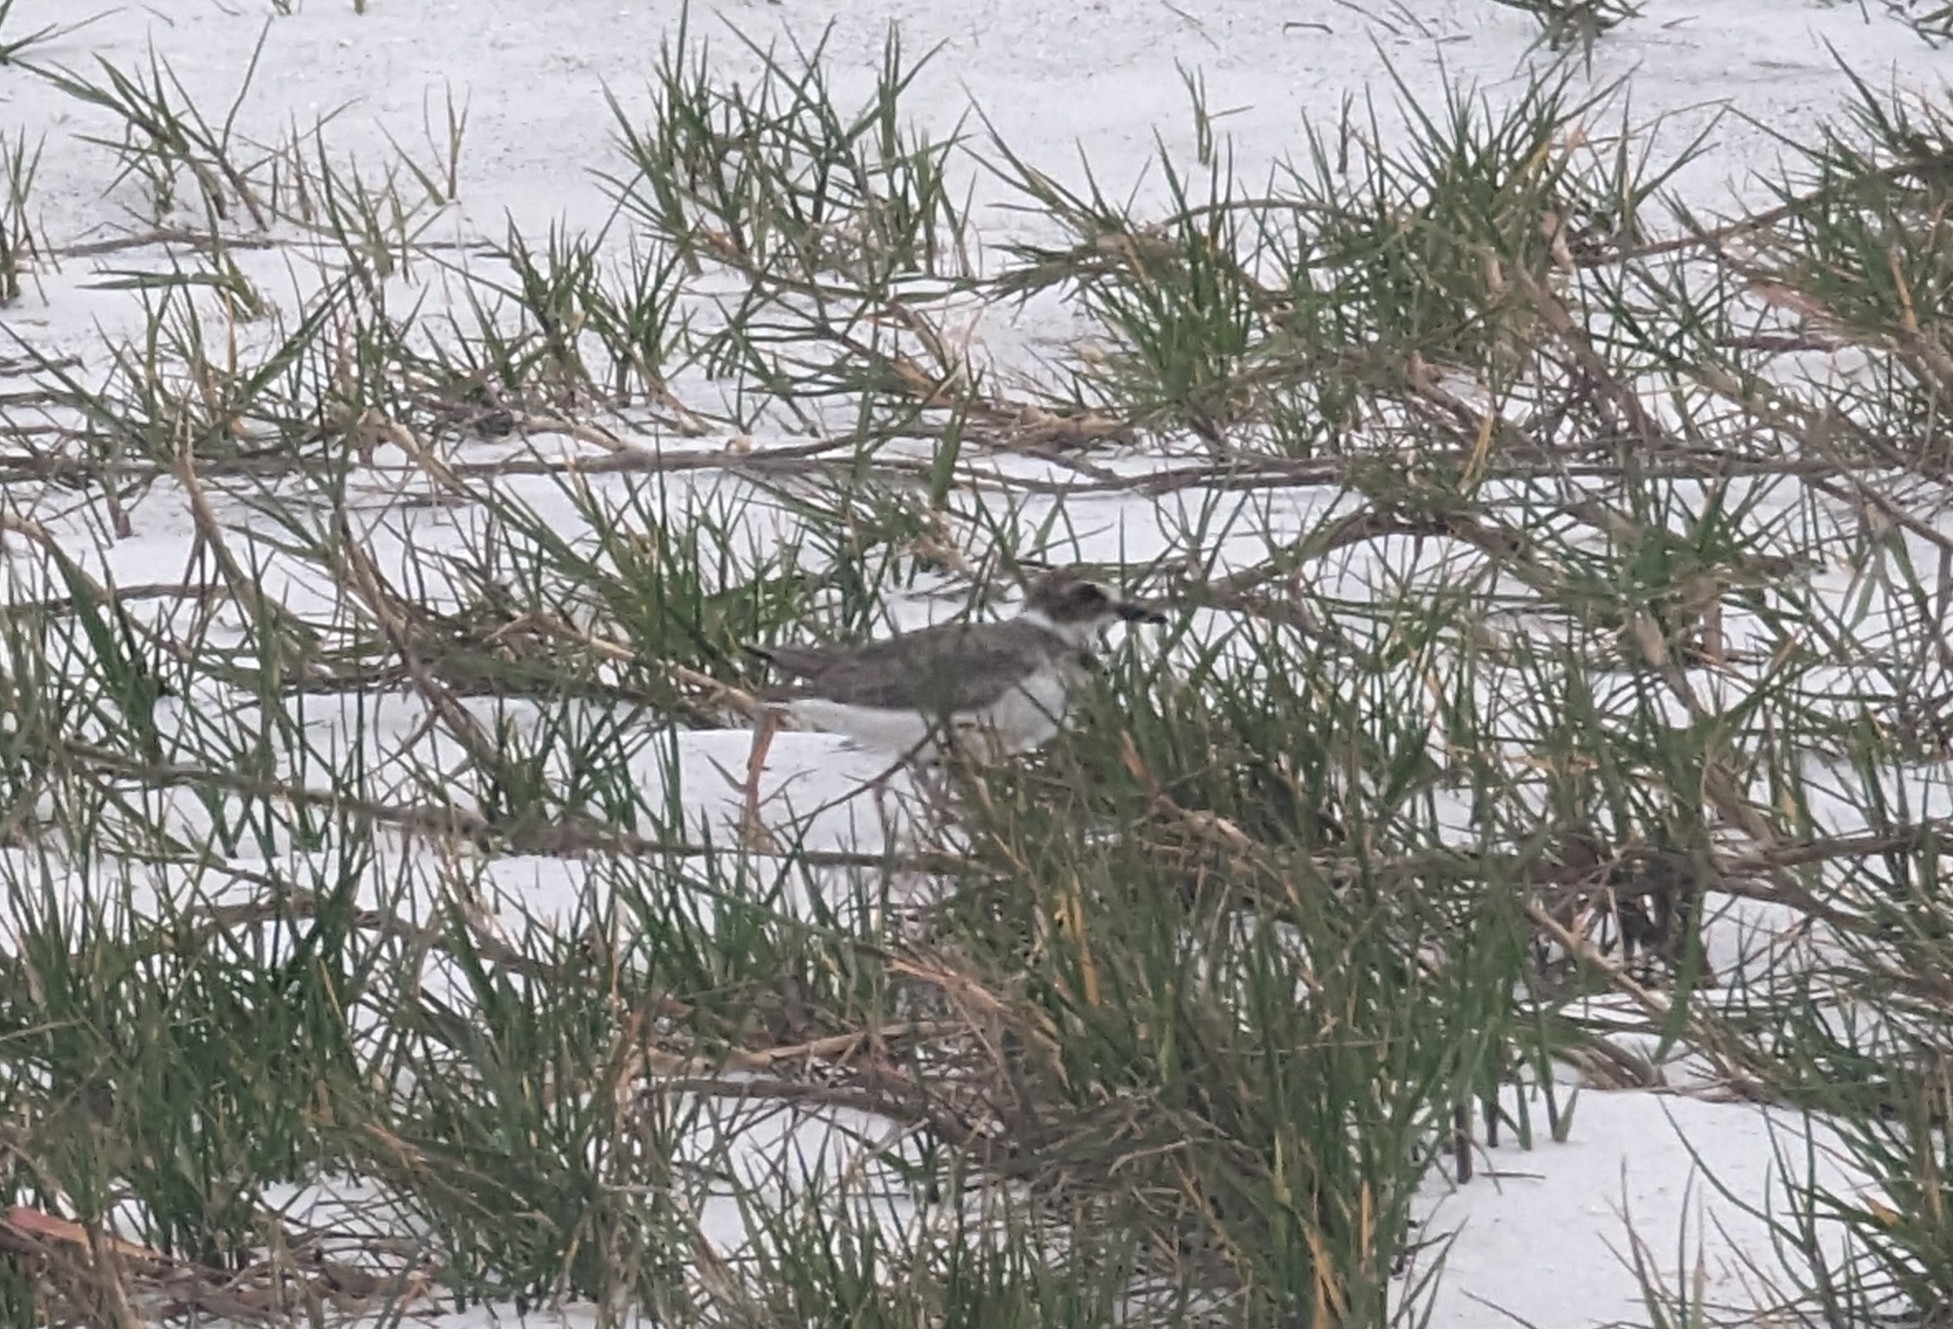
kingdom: Animalia
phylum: Chordata
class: Aves
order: Charadriiformes
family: Charadriidae
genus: Anarhynchus
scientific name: Anarhynchus
